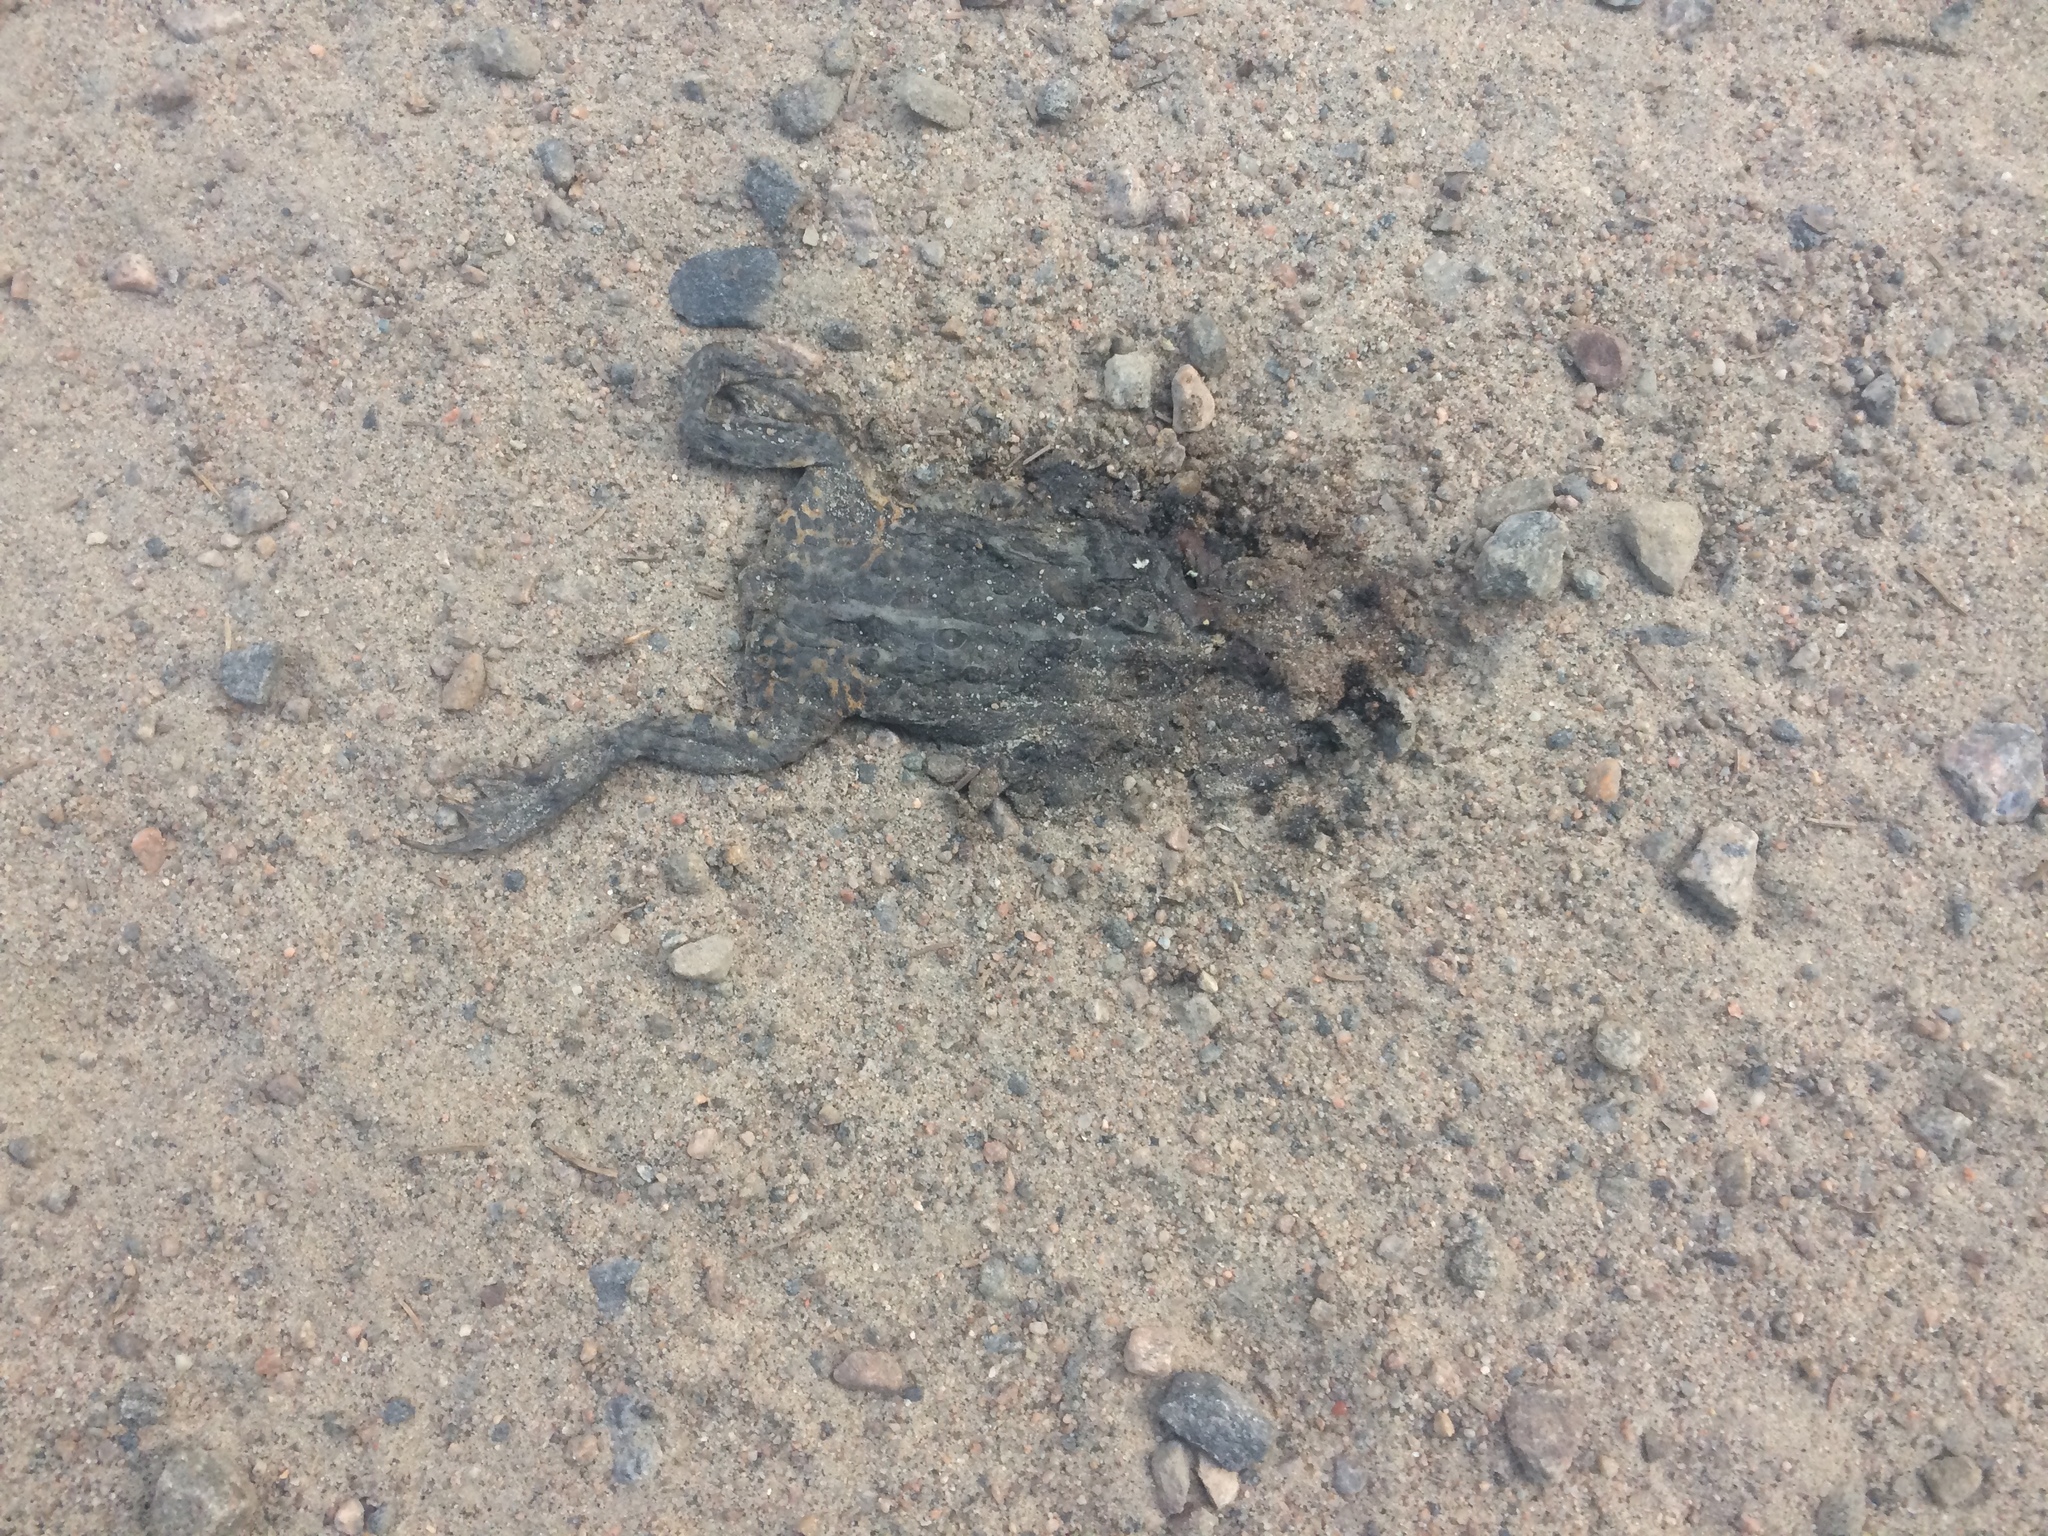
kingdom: Animalia
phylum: Chordata
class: Amphibia
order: Anura
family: Bufonidae
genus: Anaxyrus
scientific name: Anaxyrus americanus
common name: American toad
